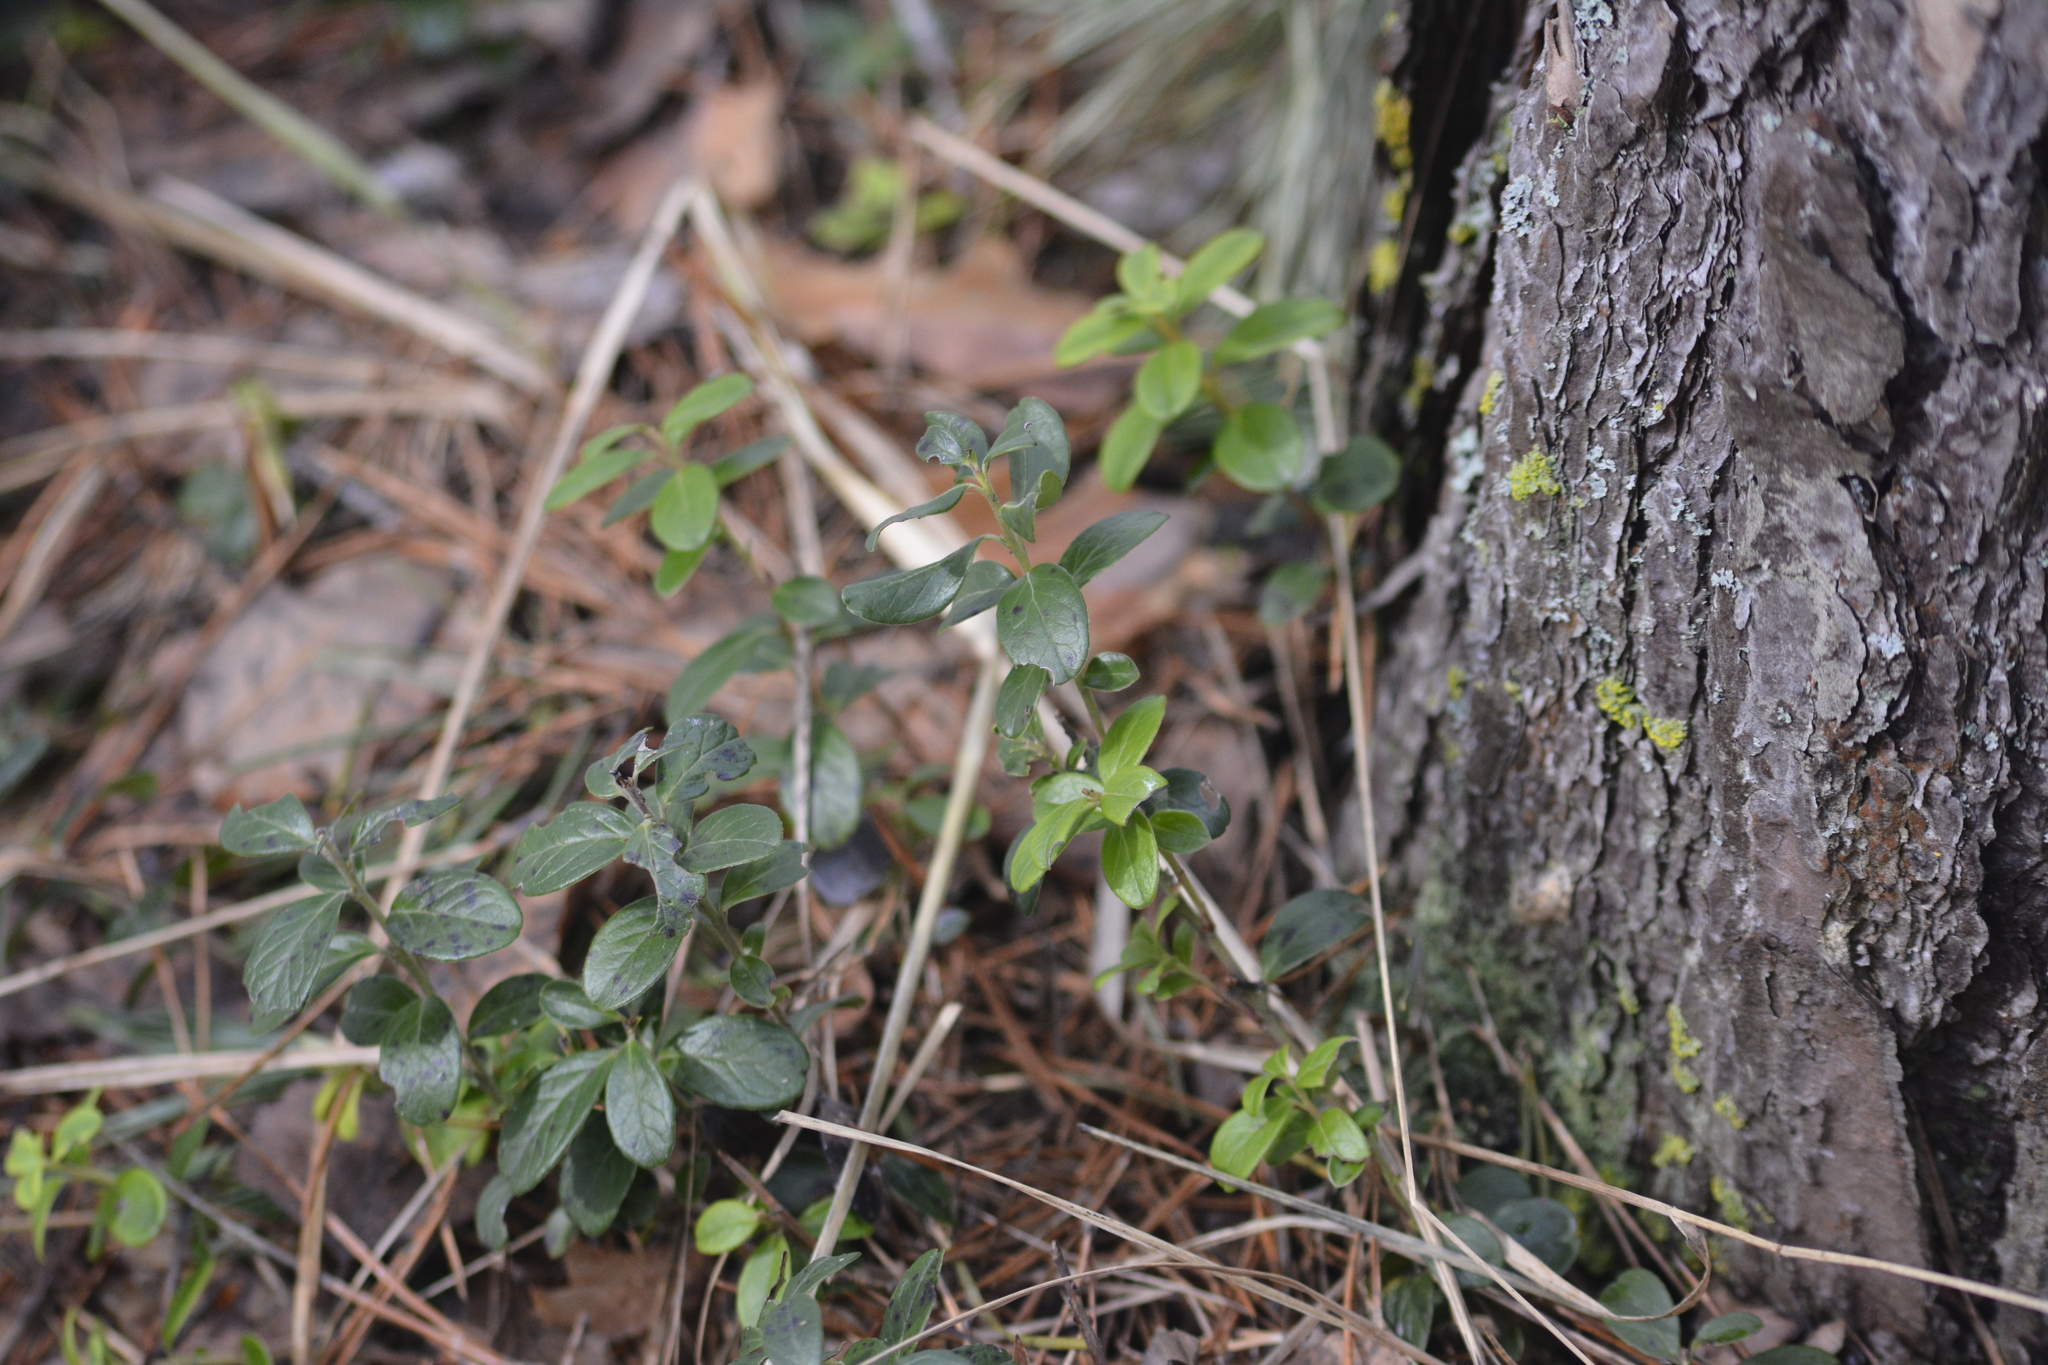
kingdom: Plantae
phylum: Tracheophyta
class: Magnoliopsida
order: Ericales
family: Ericaceae
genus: Vaccinium
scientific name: Vaccinium vitis-idaea
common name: Cowberry
